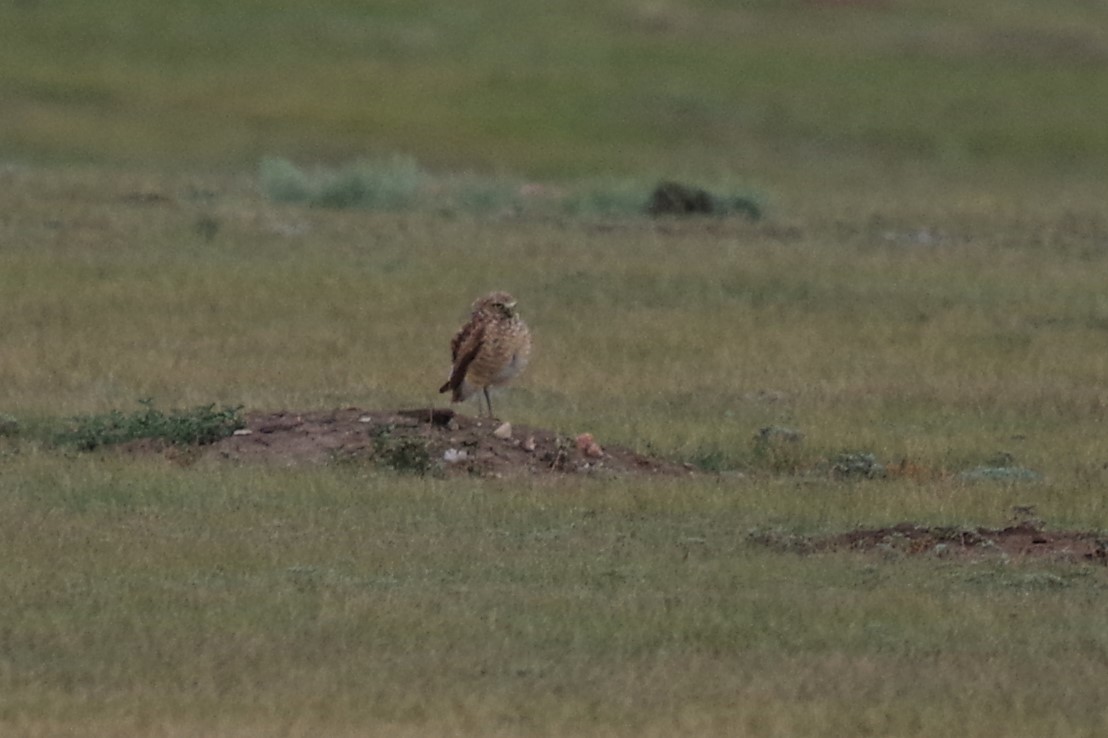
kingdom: Animalia
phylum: Chordata
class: Aves
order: Strigiformes
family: Strigidae
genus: Athene
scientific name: Athene cunicularia
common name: Burrowing owl
